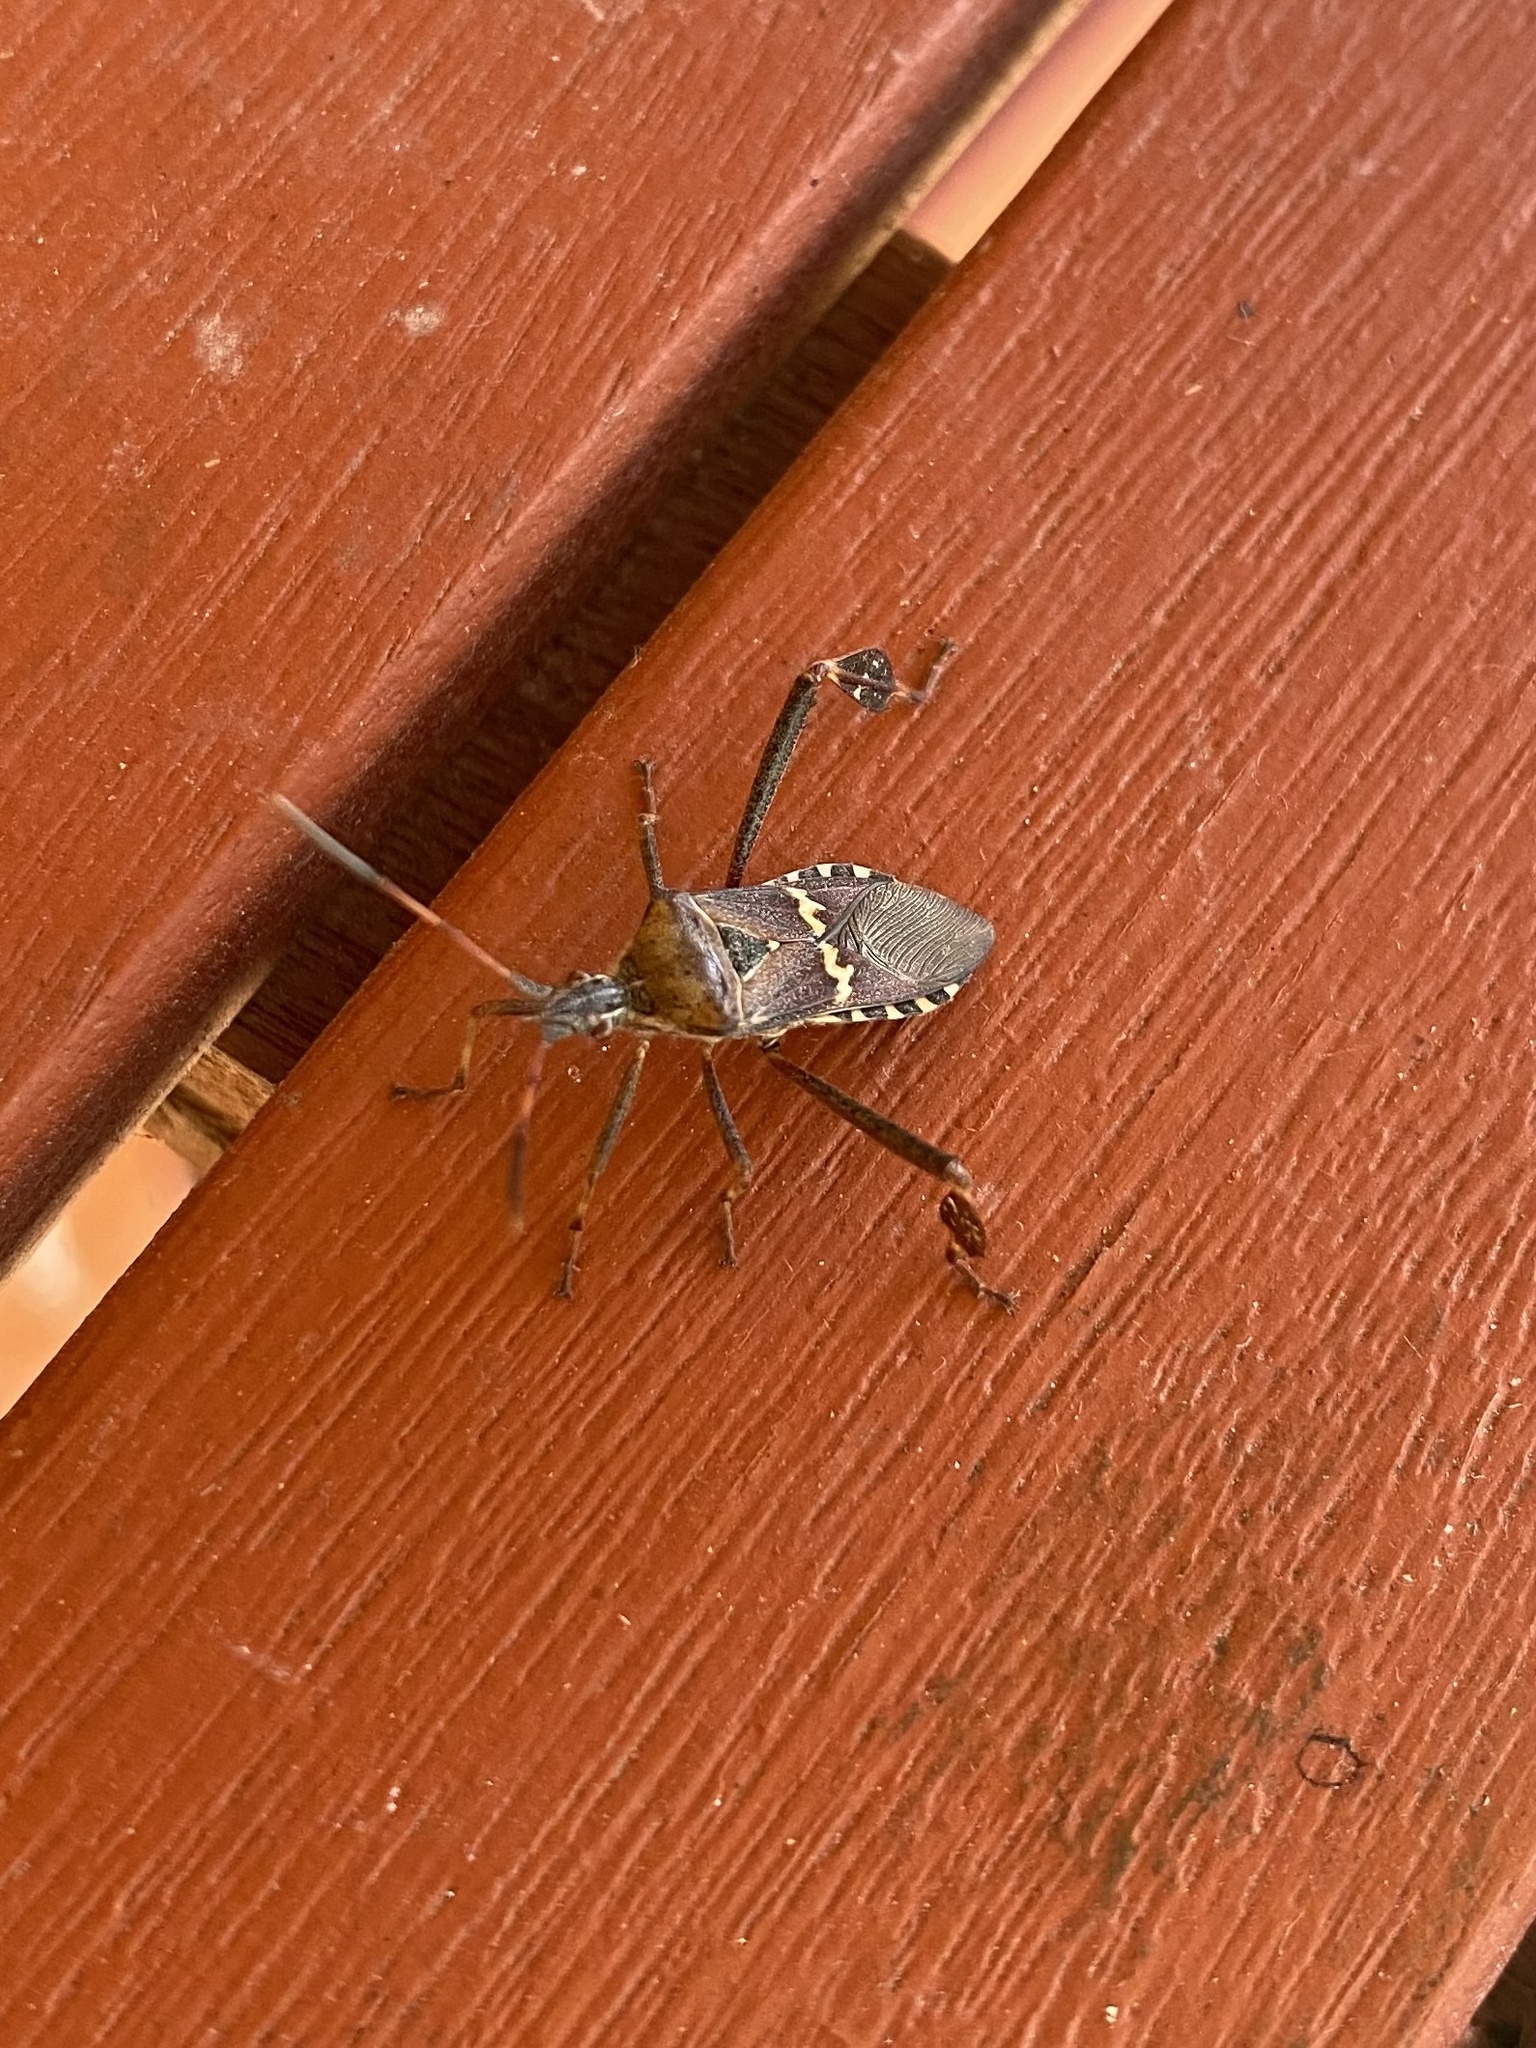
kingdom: Animalia
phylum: Arthropoda
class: Insecta
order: Hemiptera
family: Coreidae
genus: Leptoglossus
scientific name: Leptoglossus clypealis
